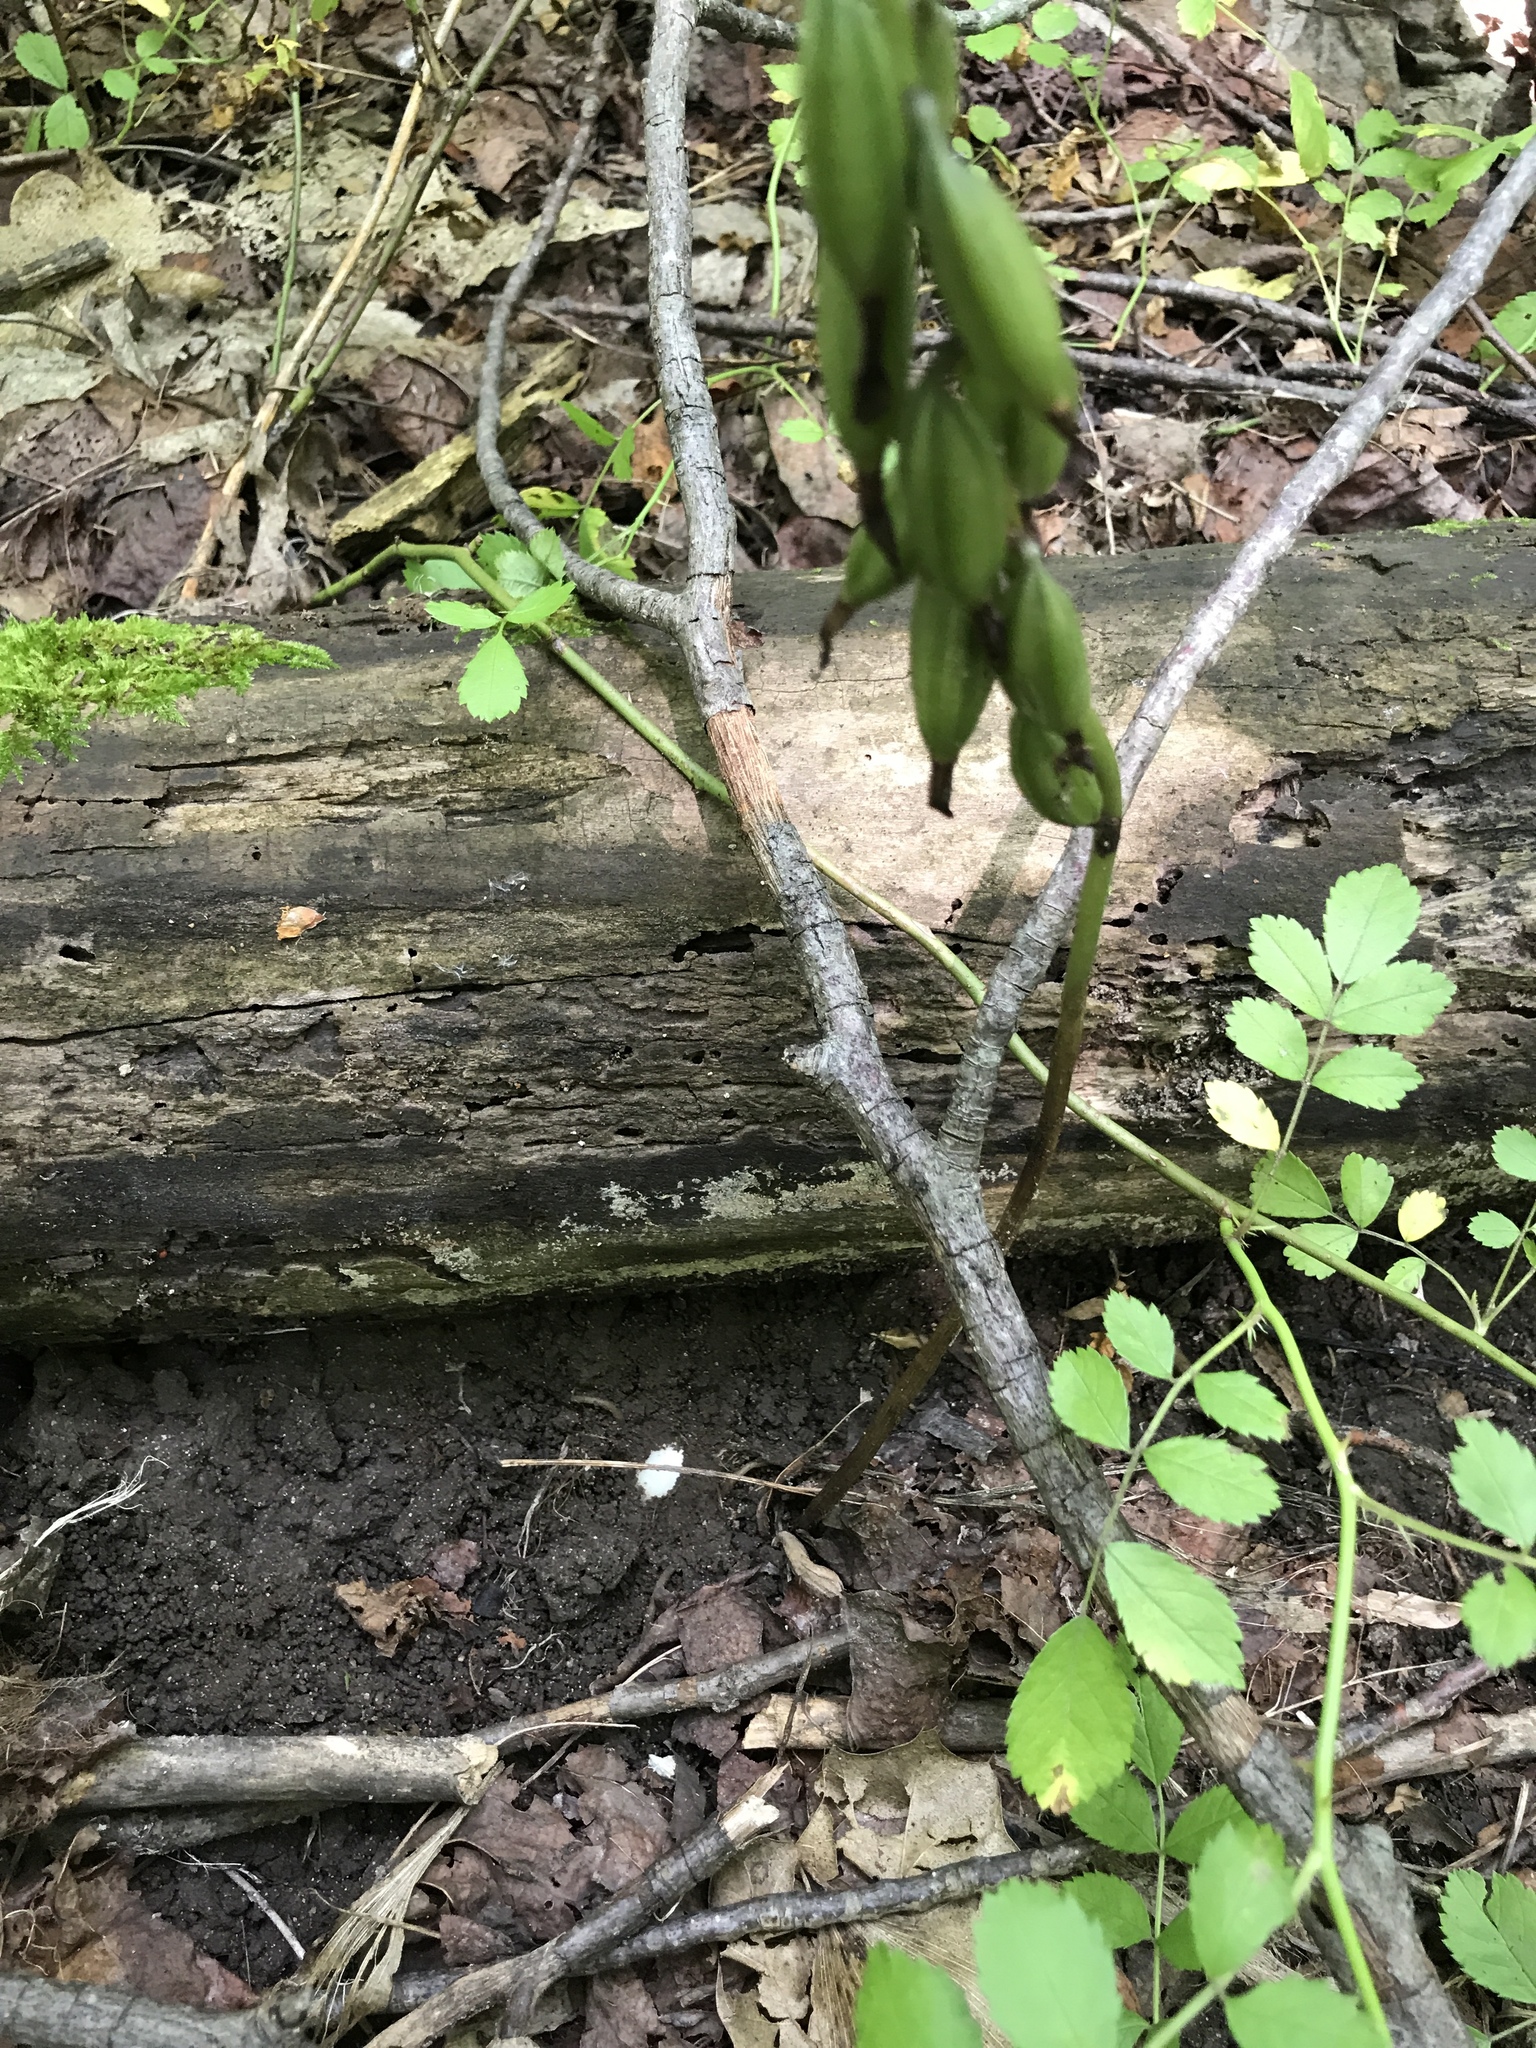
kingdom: Plantae
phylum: Tracheophyta
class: Liliopsida
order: Asparagales
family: Orchidaceae
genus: Aplectrum
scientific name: Aplectrum hyemale
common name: Adam-and-eve
